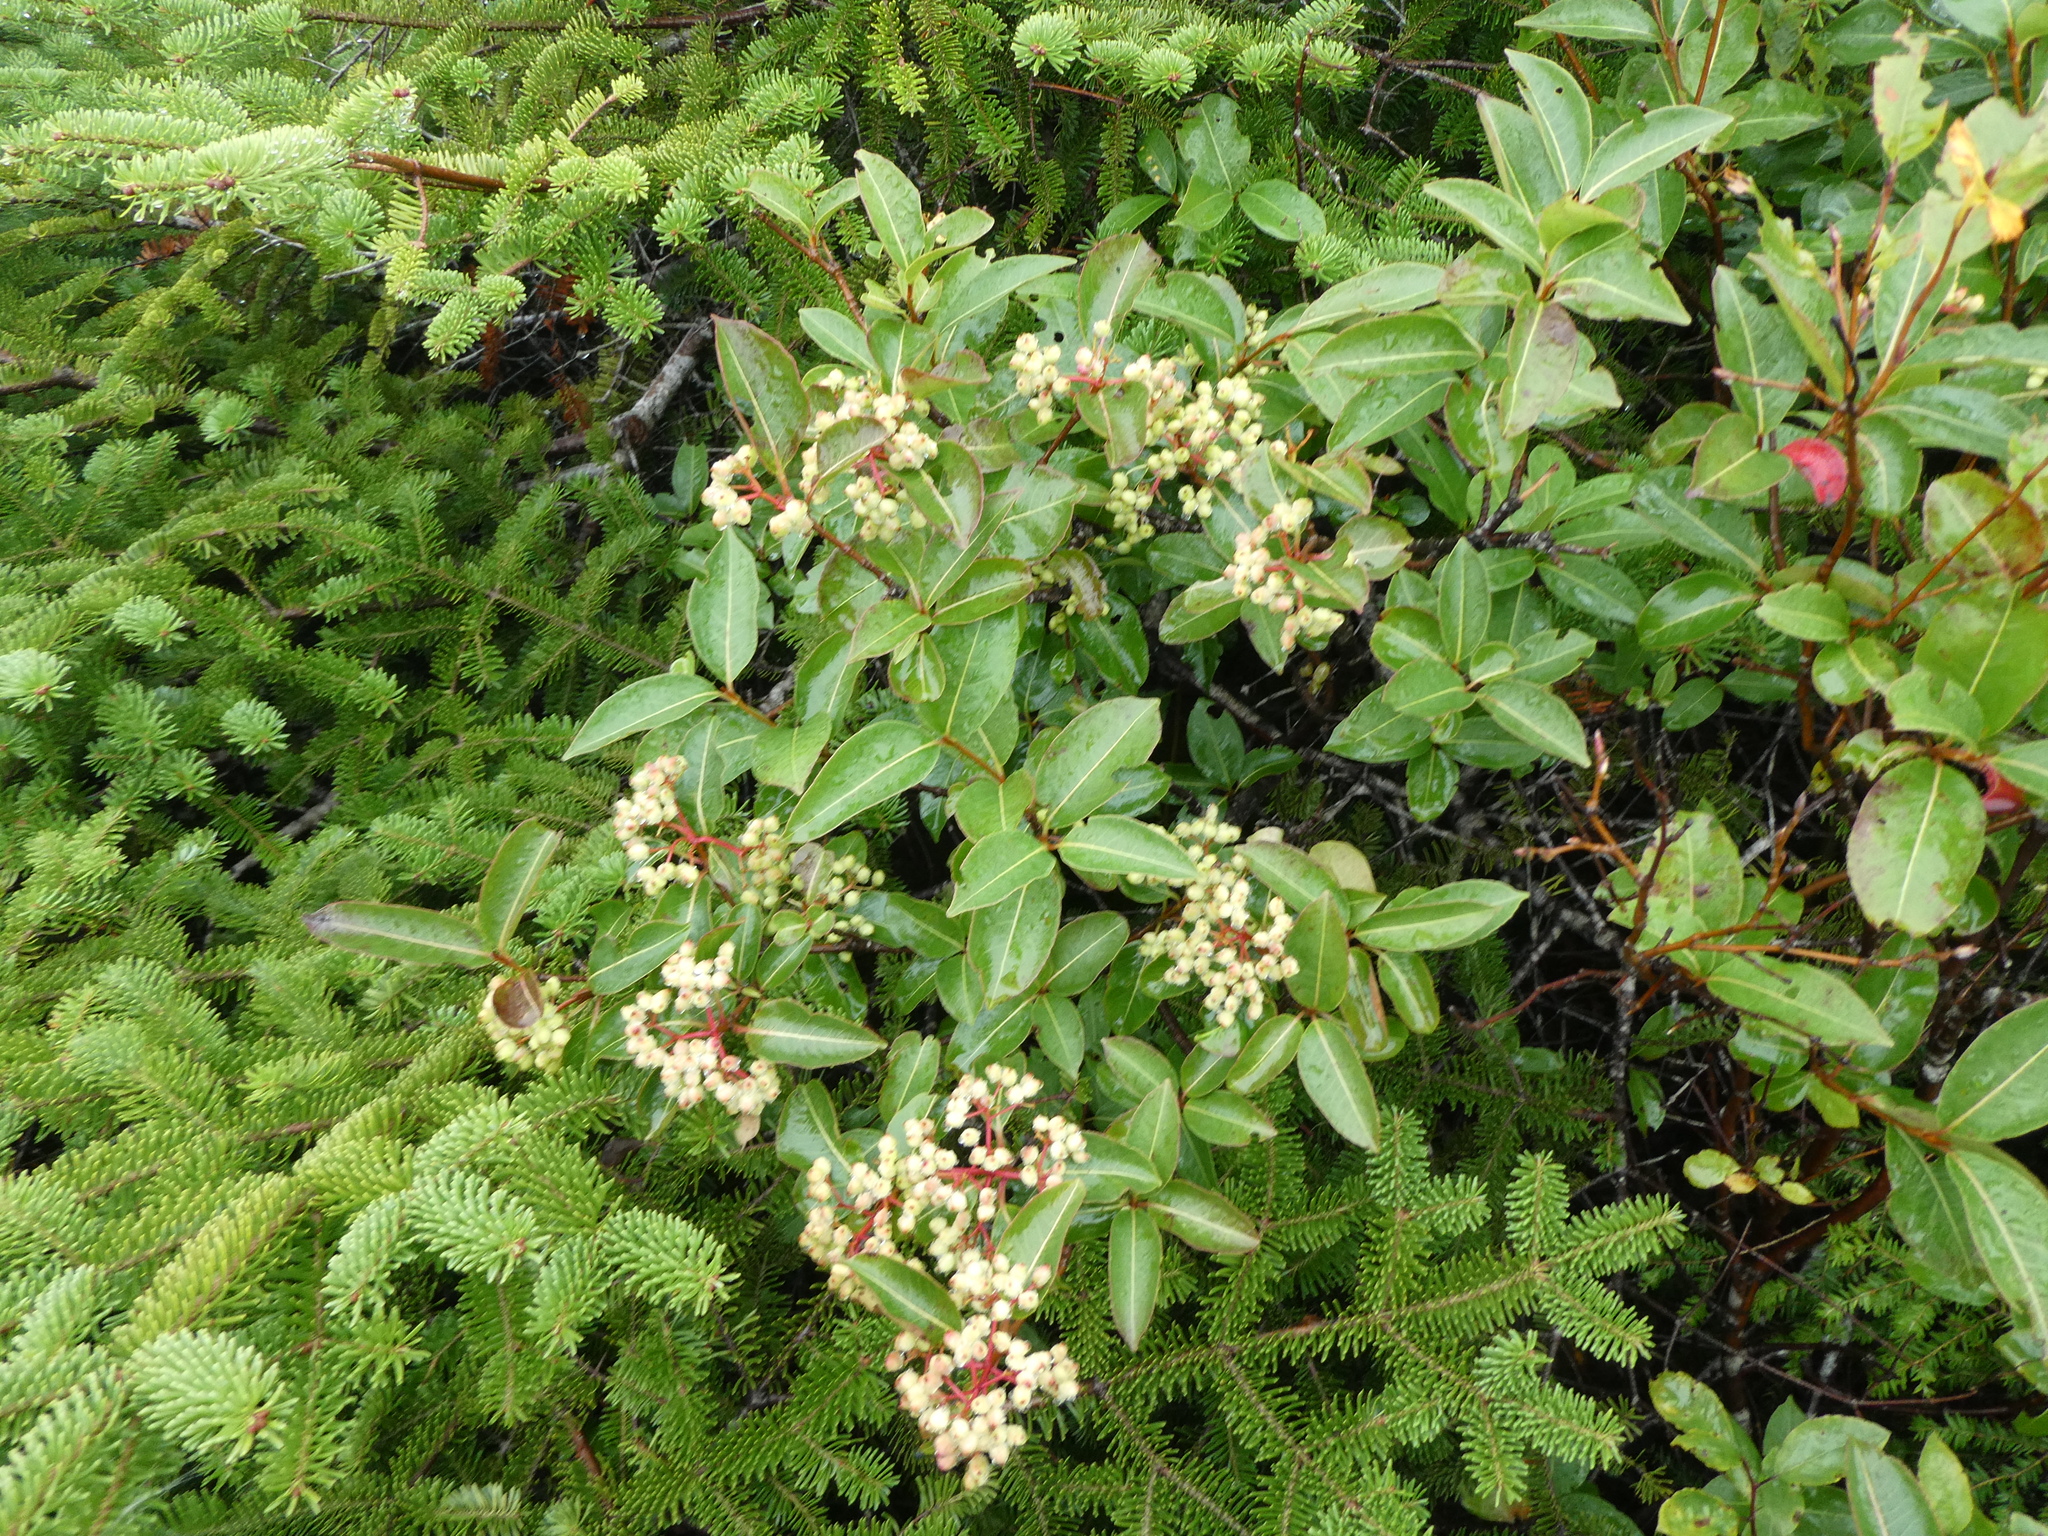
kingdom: Plantae
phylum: Tracheophyta
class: Magnoliopsida
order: Dipsacales
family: Viburnaceae
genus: Viburnum
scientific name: Viburnum cassinoides
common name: Swamp haw
